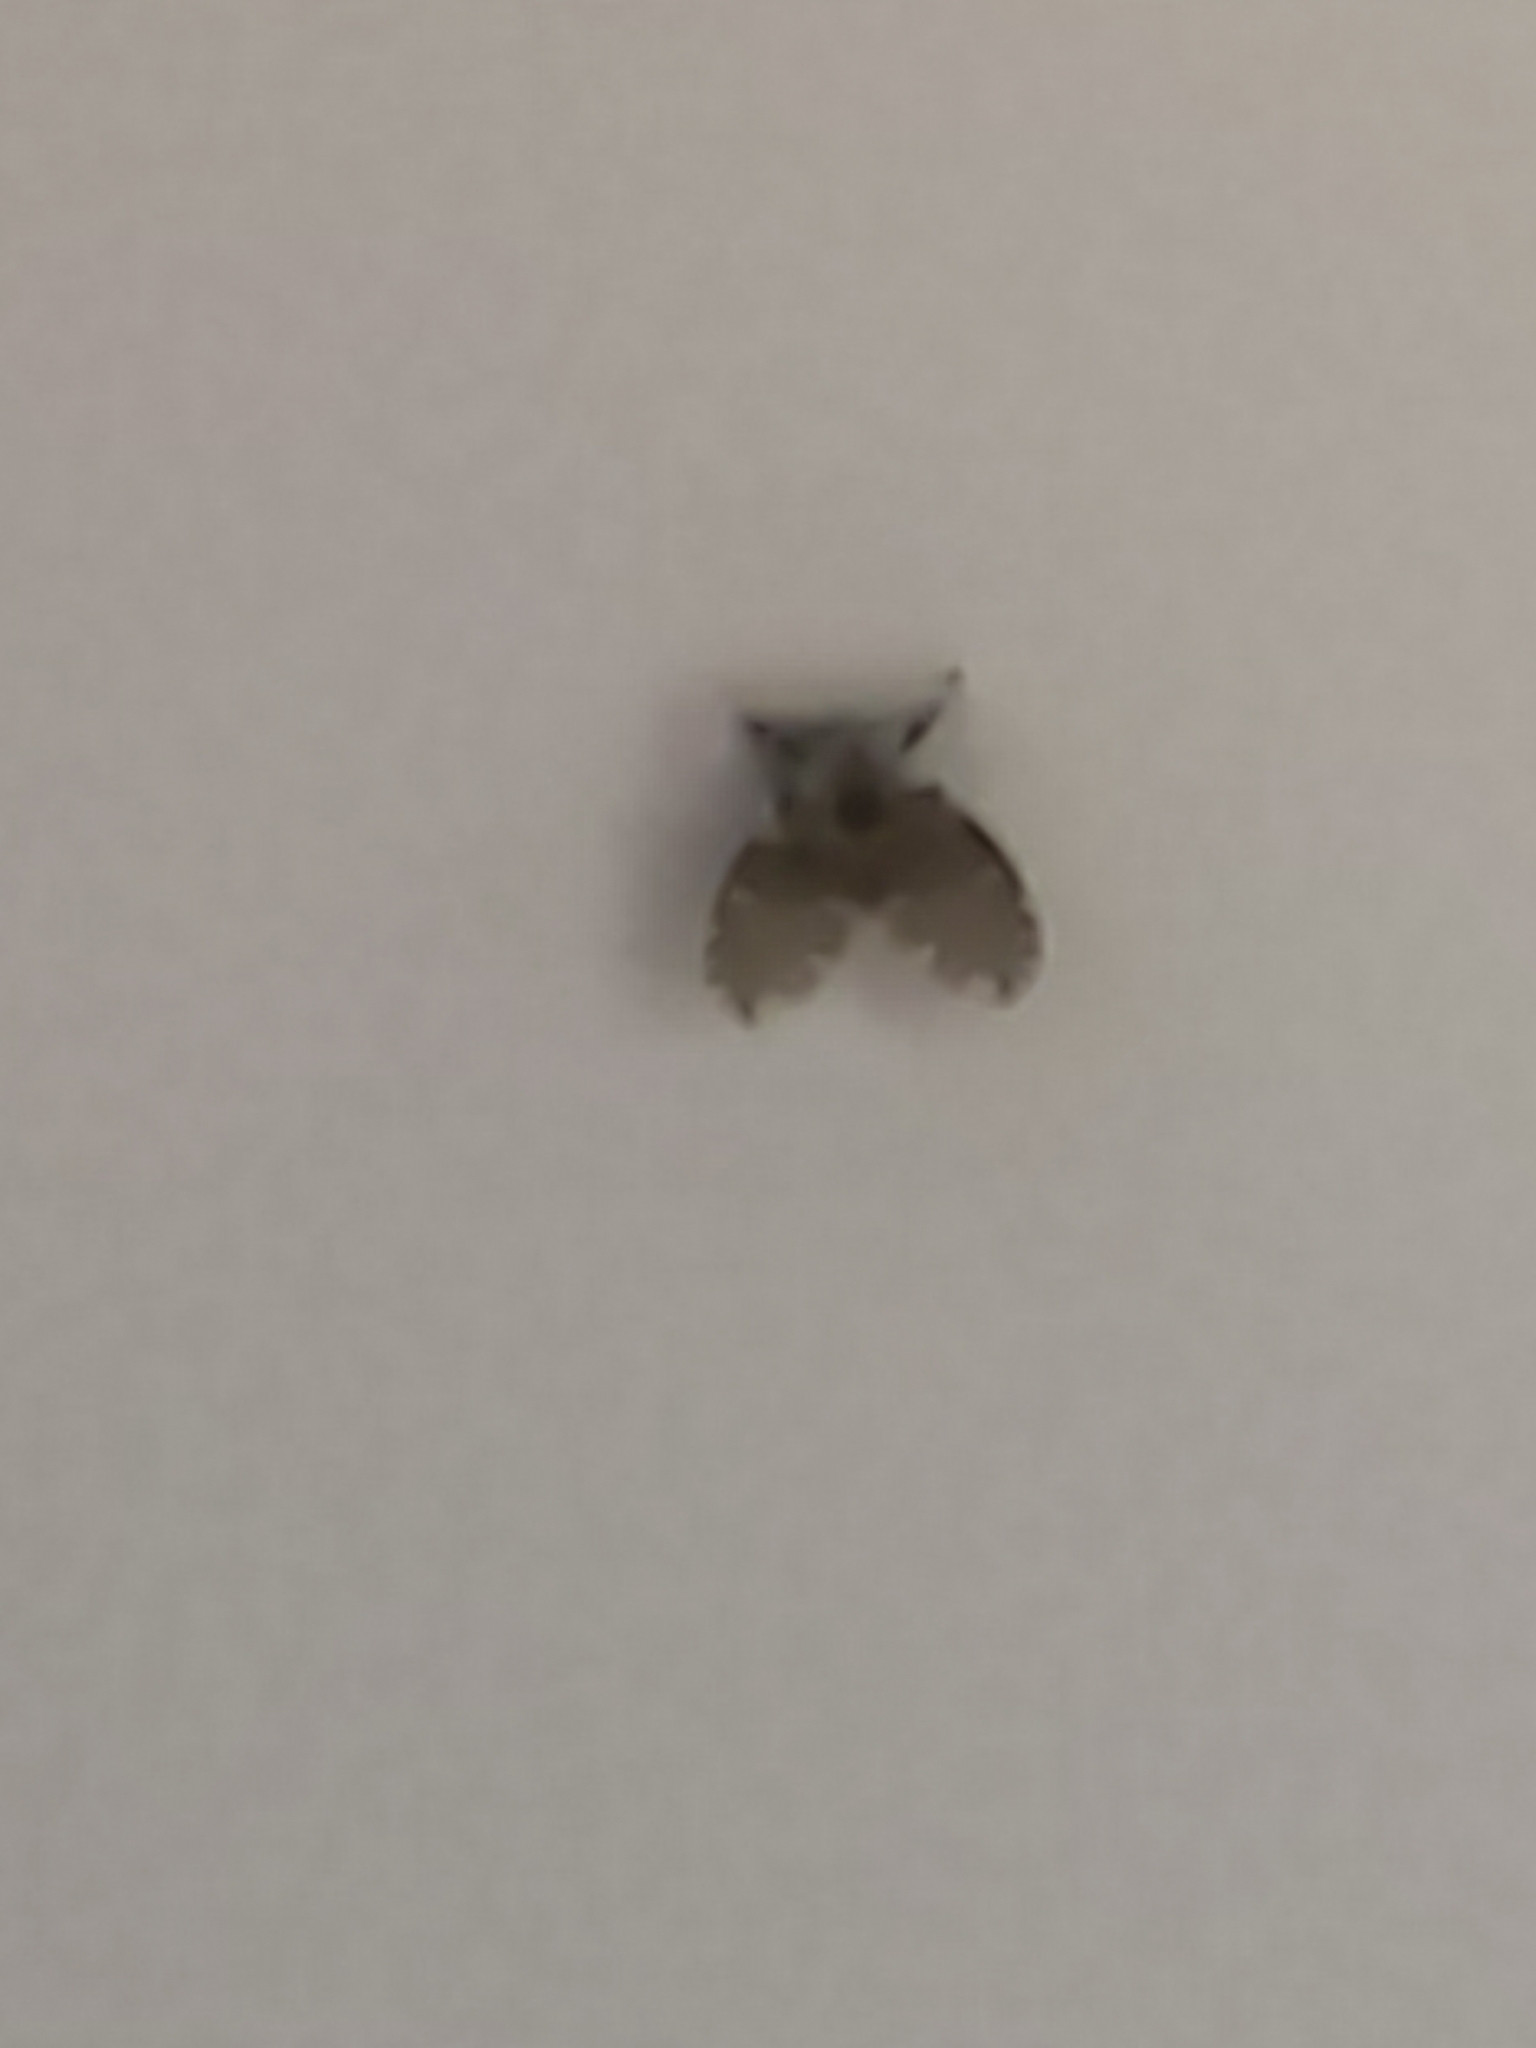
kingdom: Animalia
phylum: Arthropoda
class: Insecta
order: Diptera
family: Psychodidae
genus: Clogmia
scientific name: Clogmia albipunctatus
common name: White-spotted moth fly
